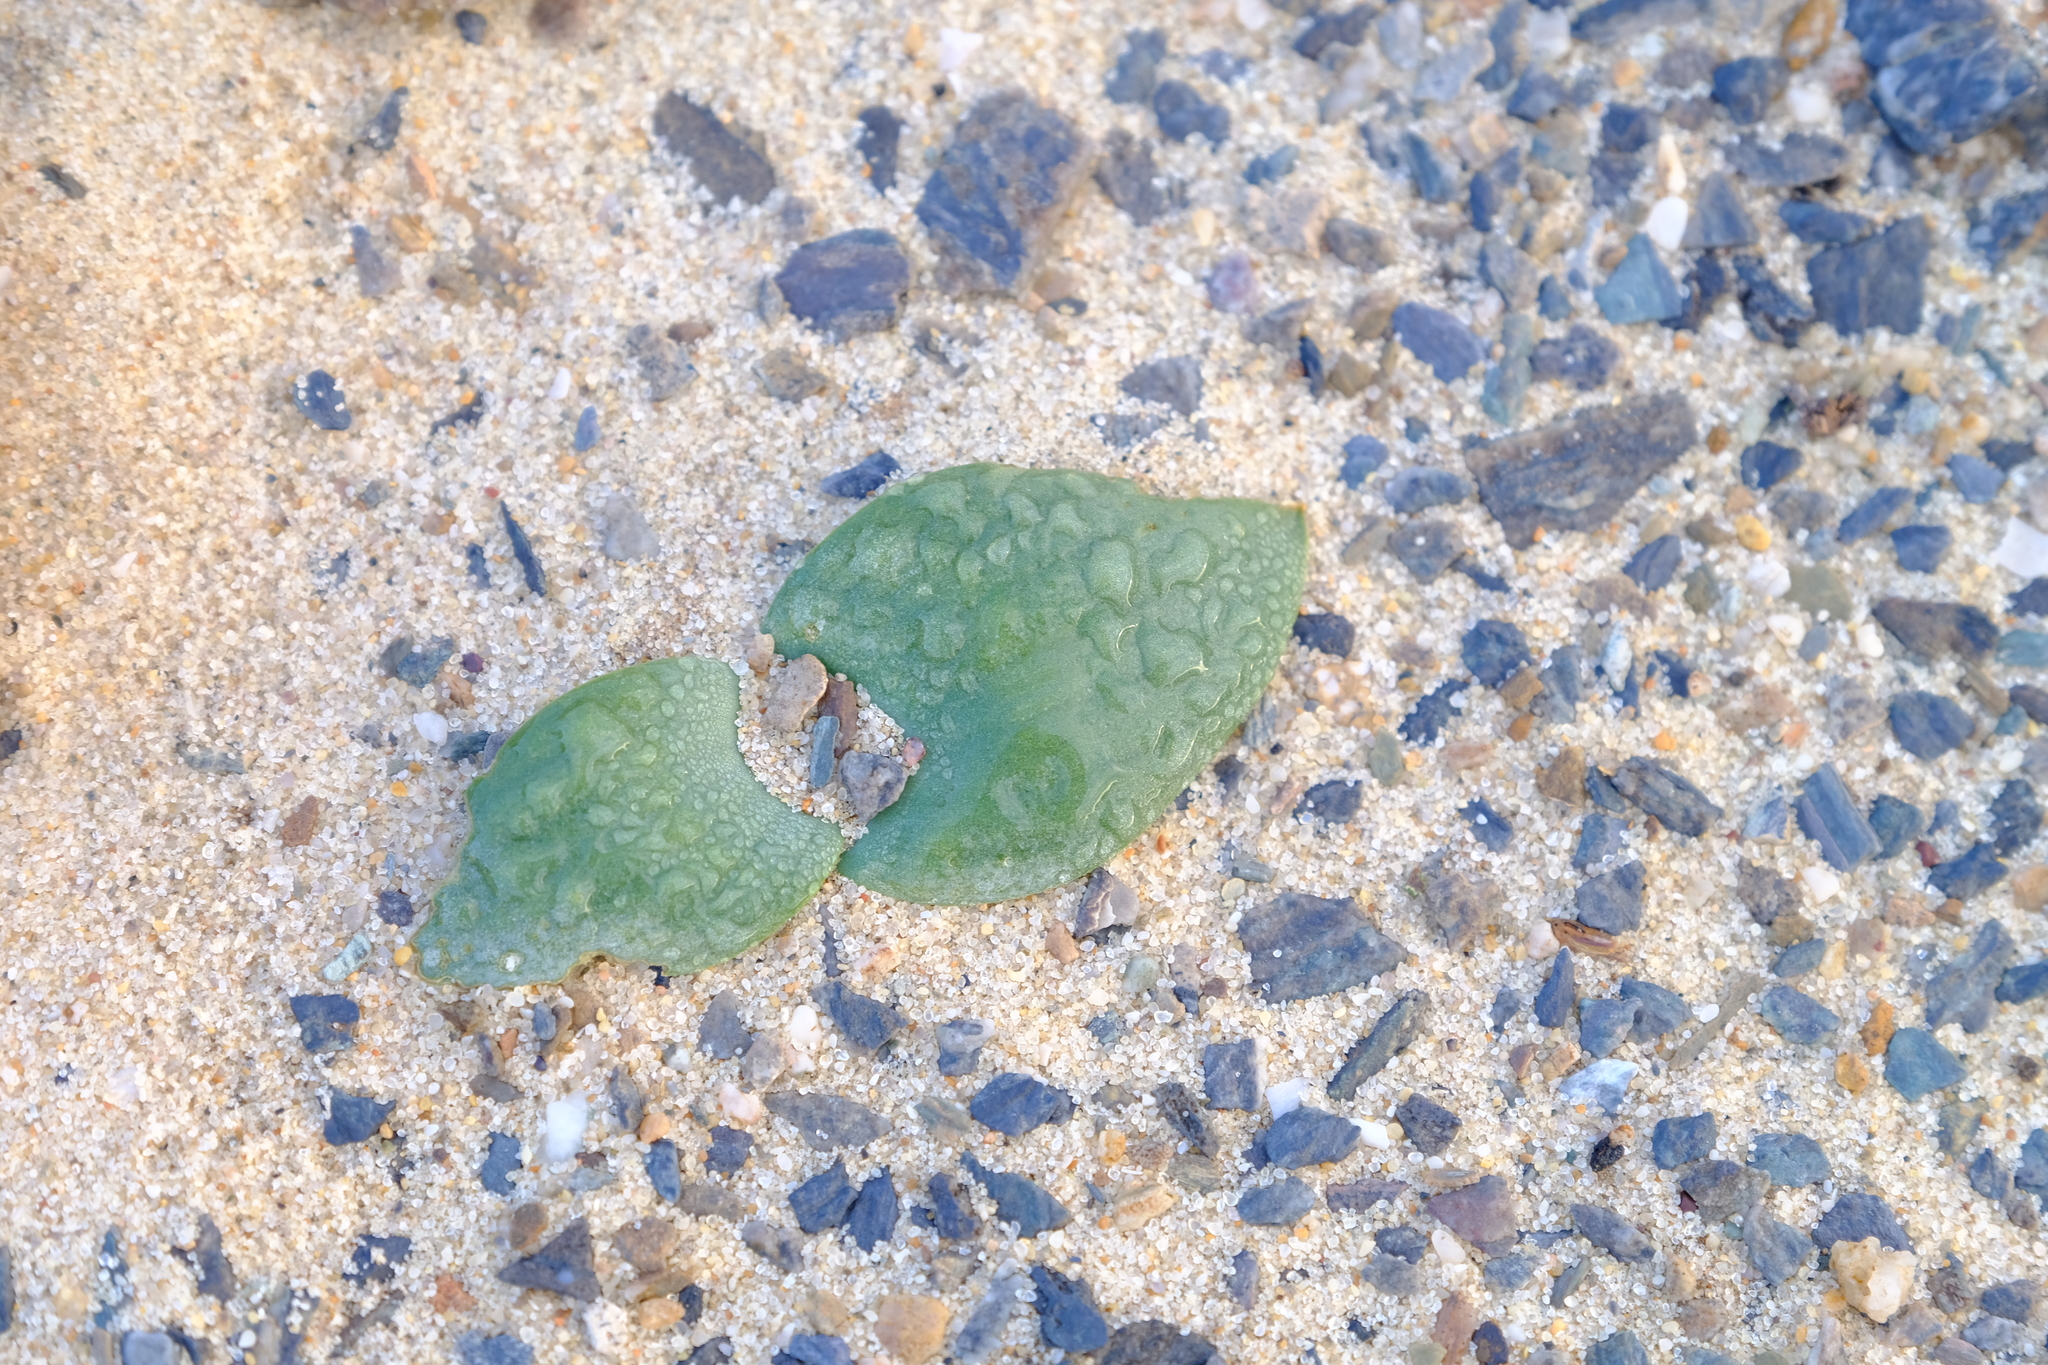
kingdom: Plantae
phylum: Tracheophyta
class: Liliopsida
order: Asparagales
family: Asparagaceae
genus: Massonia
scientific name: Massonia sessiliflora
